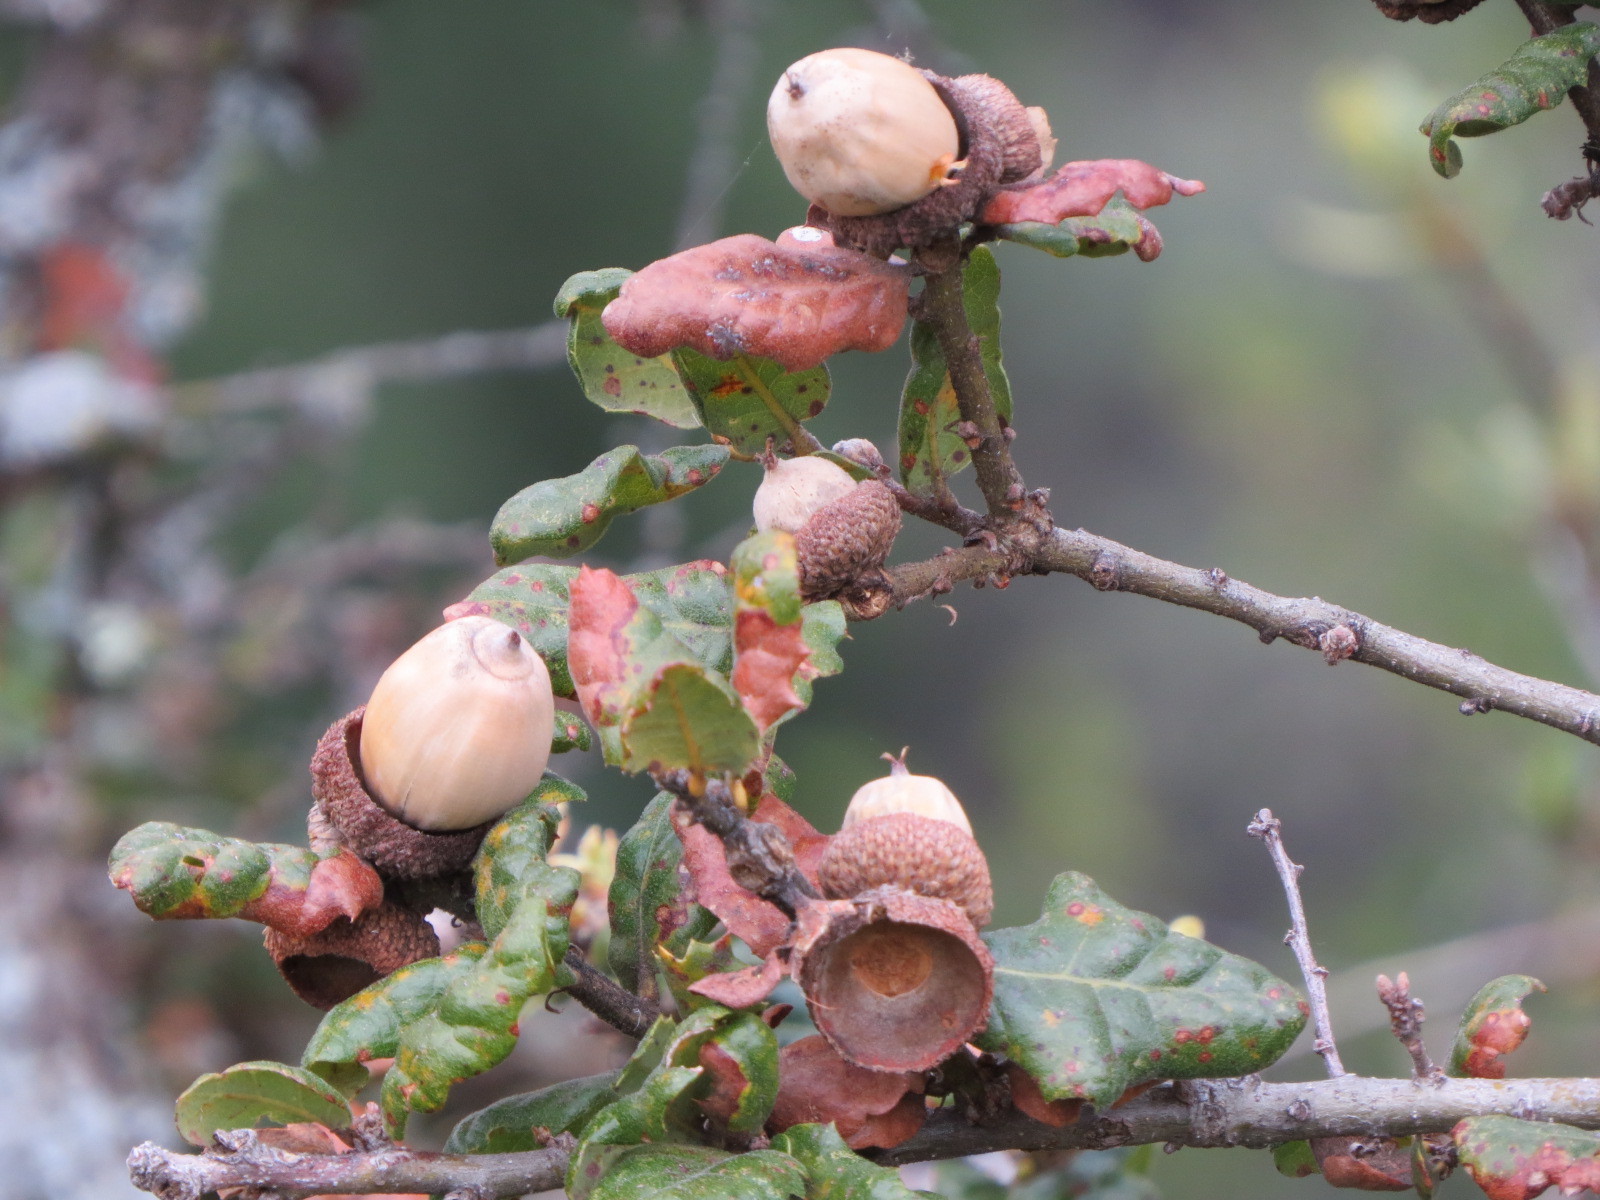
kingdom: Plantae
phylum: Tracheophyta
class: Magnoliopsida
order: Fagales
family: Fagaceae
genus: Quercus
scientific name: Quercus durata
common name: Leather oak
